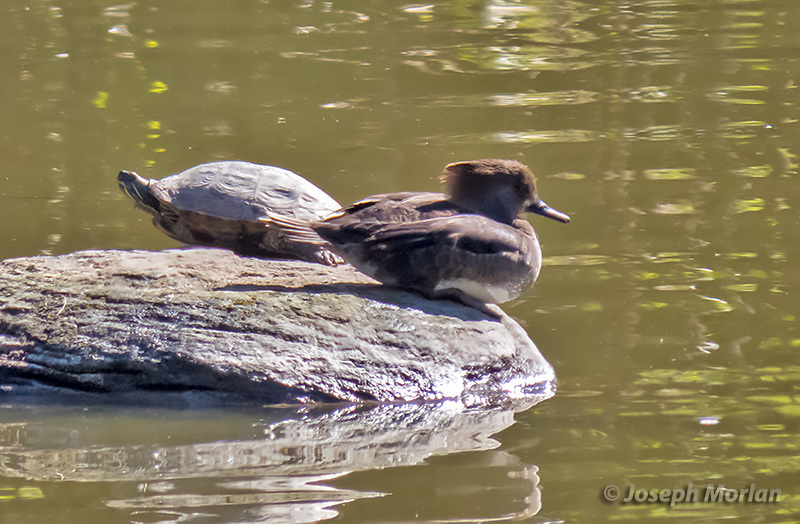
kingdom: Animalia
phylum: Chordata
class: Aves
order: Anseriformes
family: Anatidae
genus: Lophodytes
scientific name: Lophodytes cucullatus
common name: Hooded merganser
